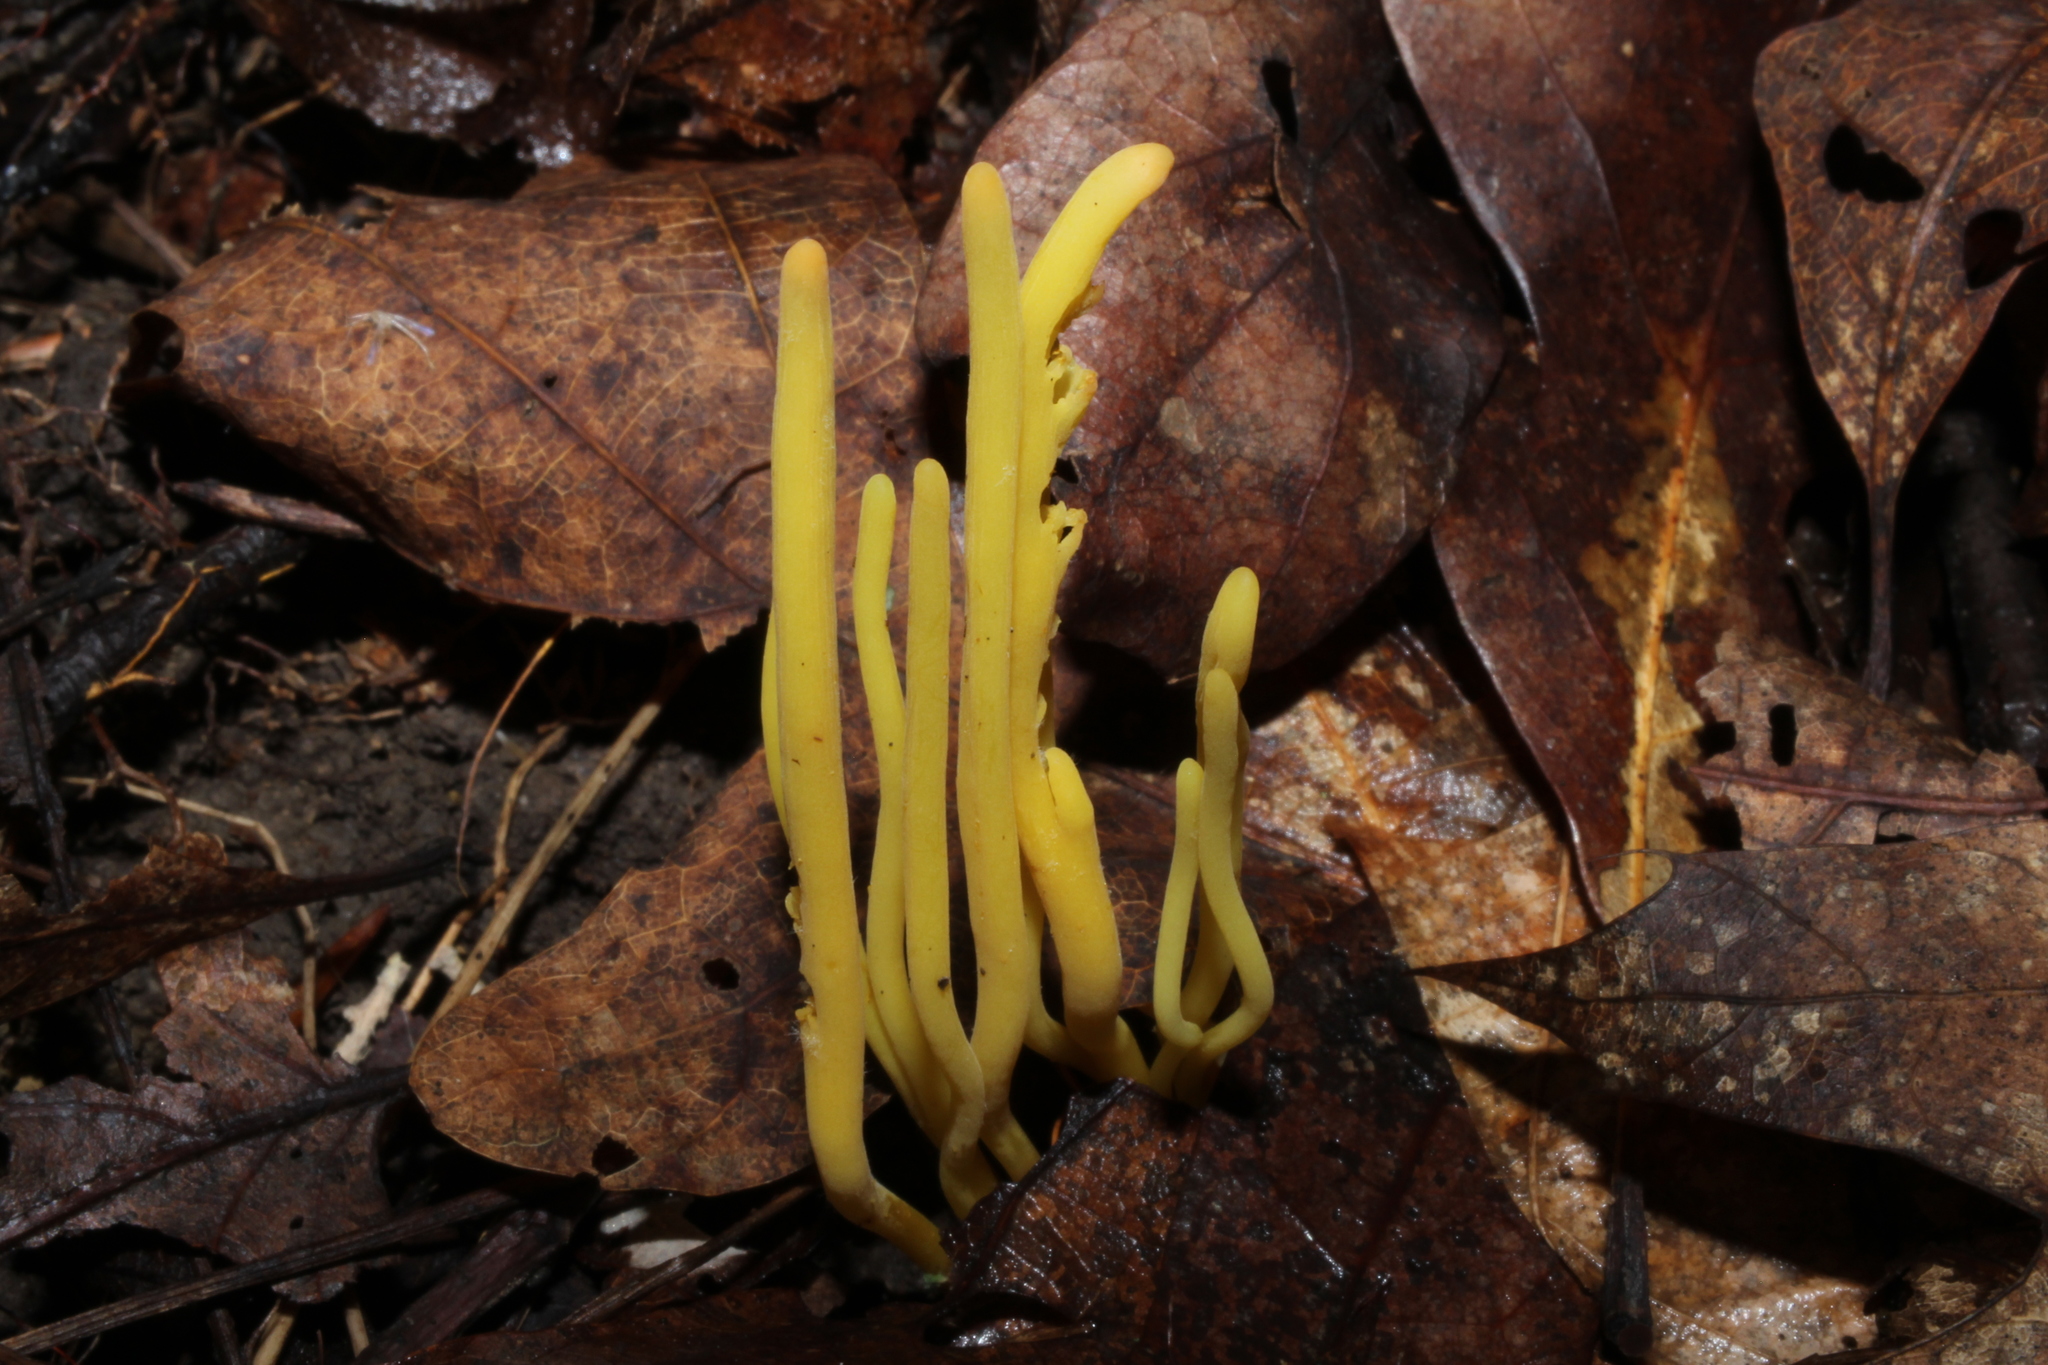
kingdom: Fungi
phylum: Basidiomycota
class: Agaricomycetes
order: Agaricales
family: Clavariaceae
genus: Clavulinopsis
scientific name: Clavulinopsis fusiformis
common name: Golden spindles
